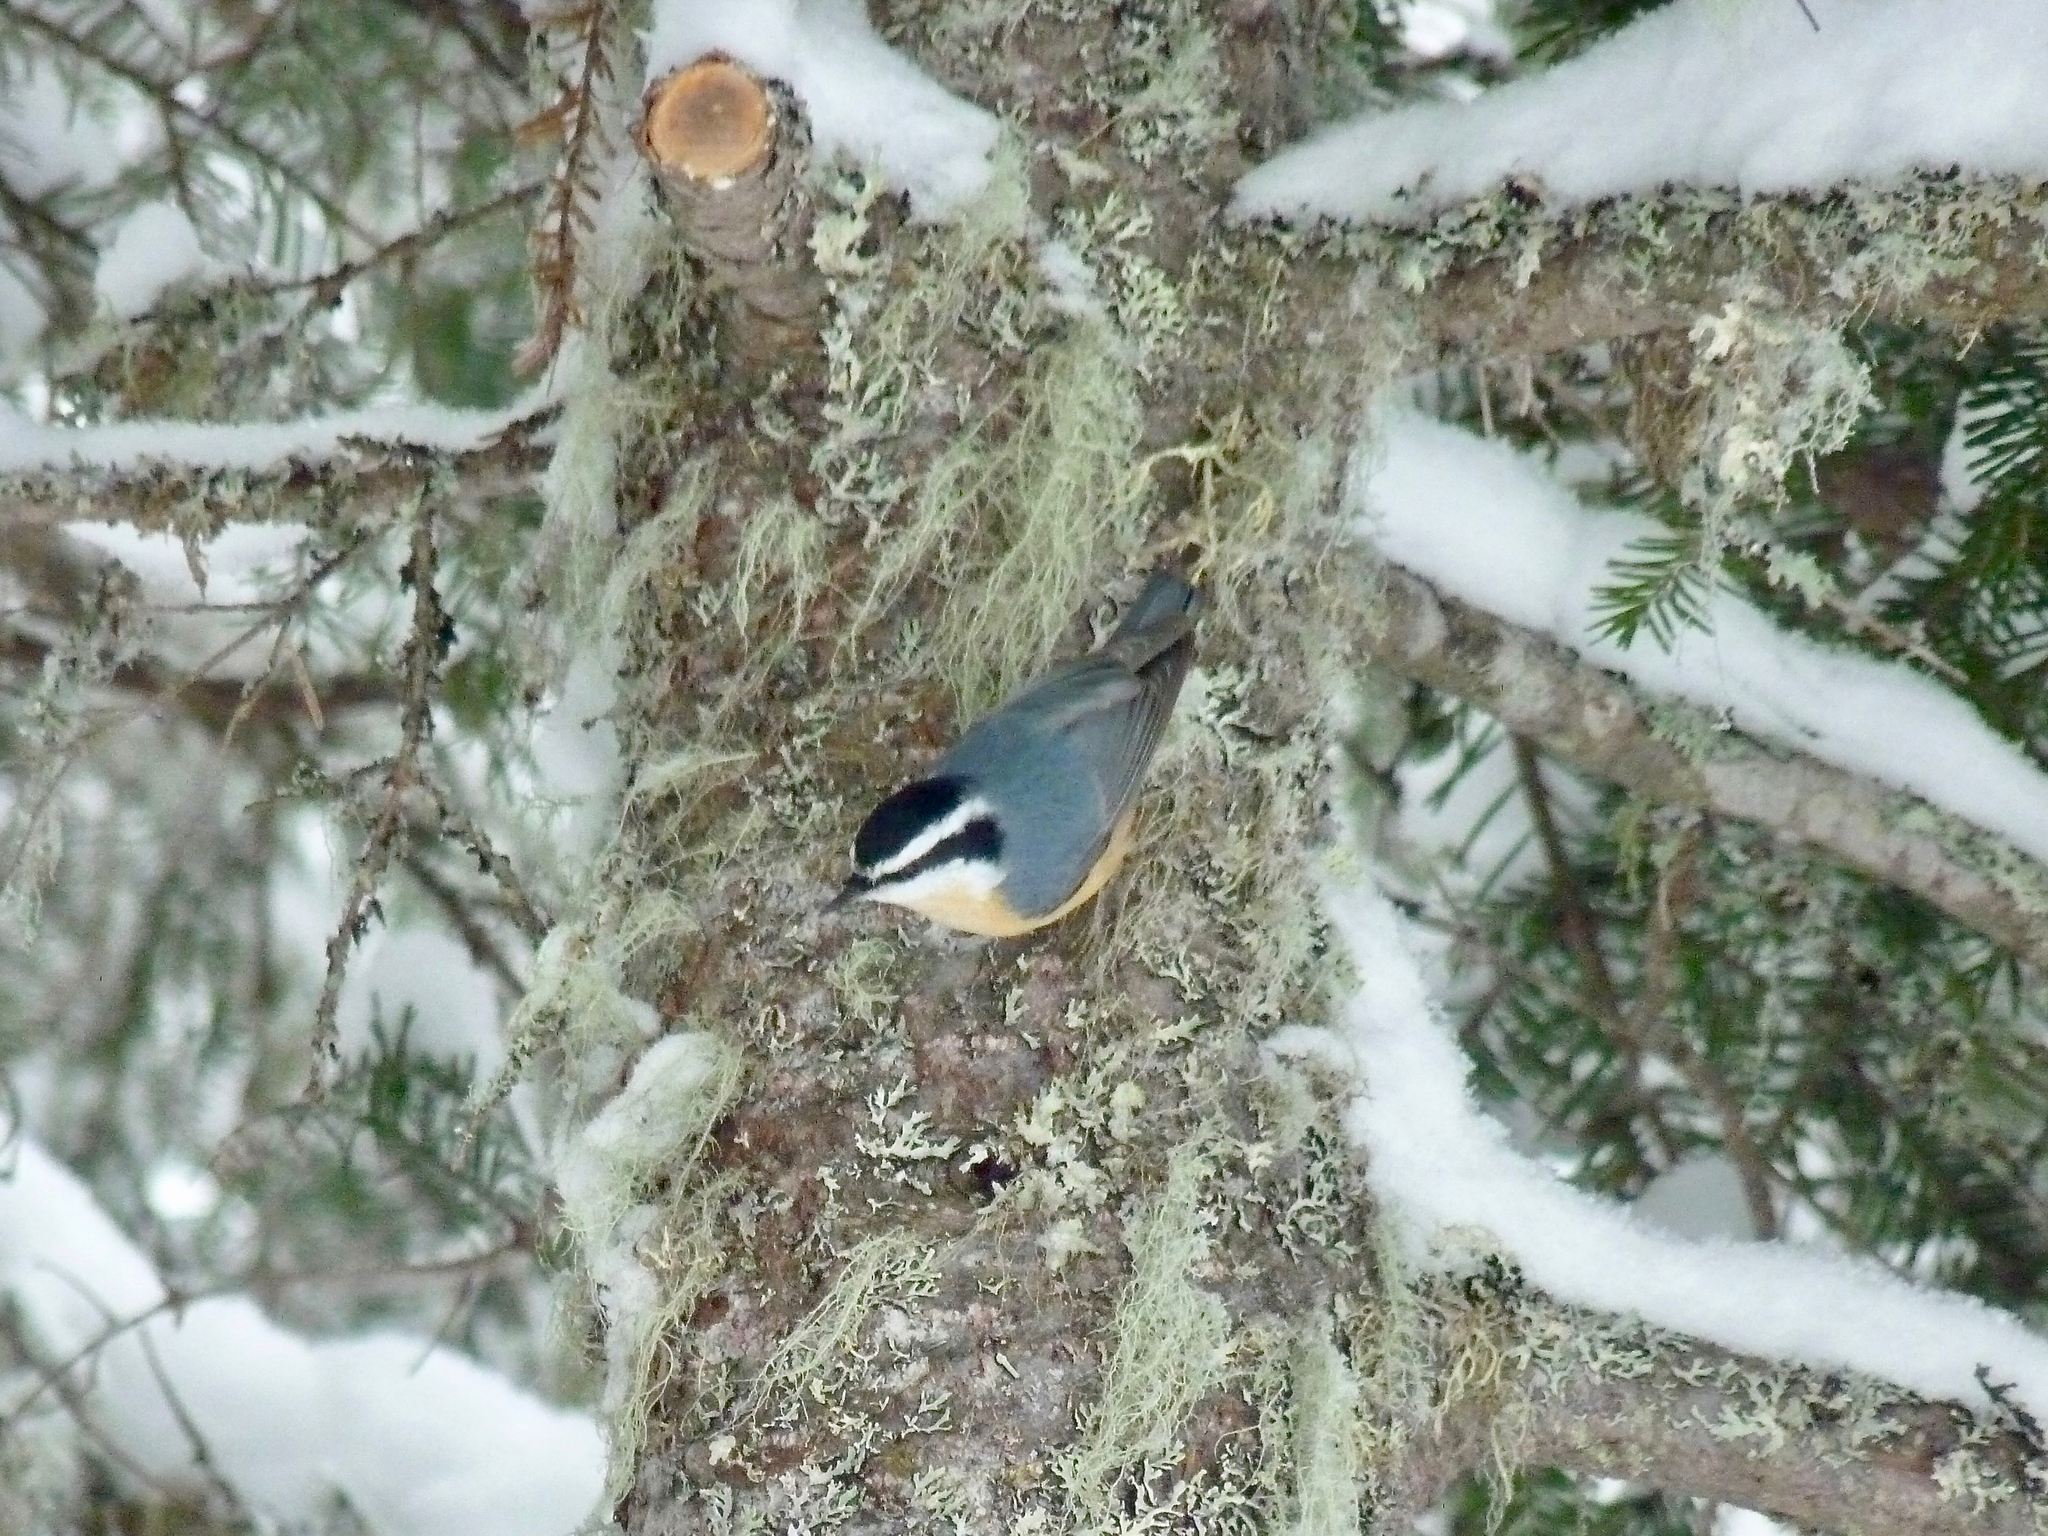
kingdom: Animalia
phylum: Chordata
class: Aves
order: Passeriformes
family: Sittidae
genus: Sitta
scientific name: Sitta canadensis
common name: Red-breasted nuthatch
